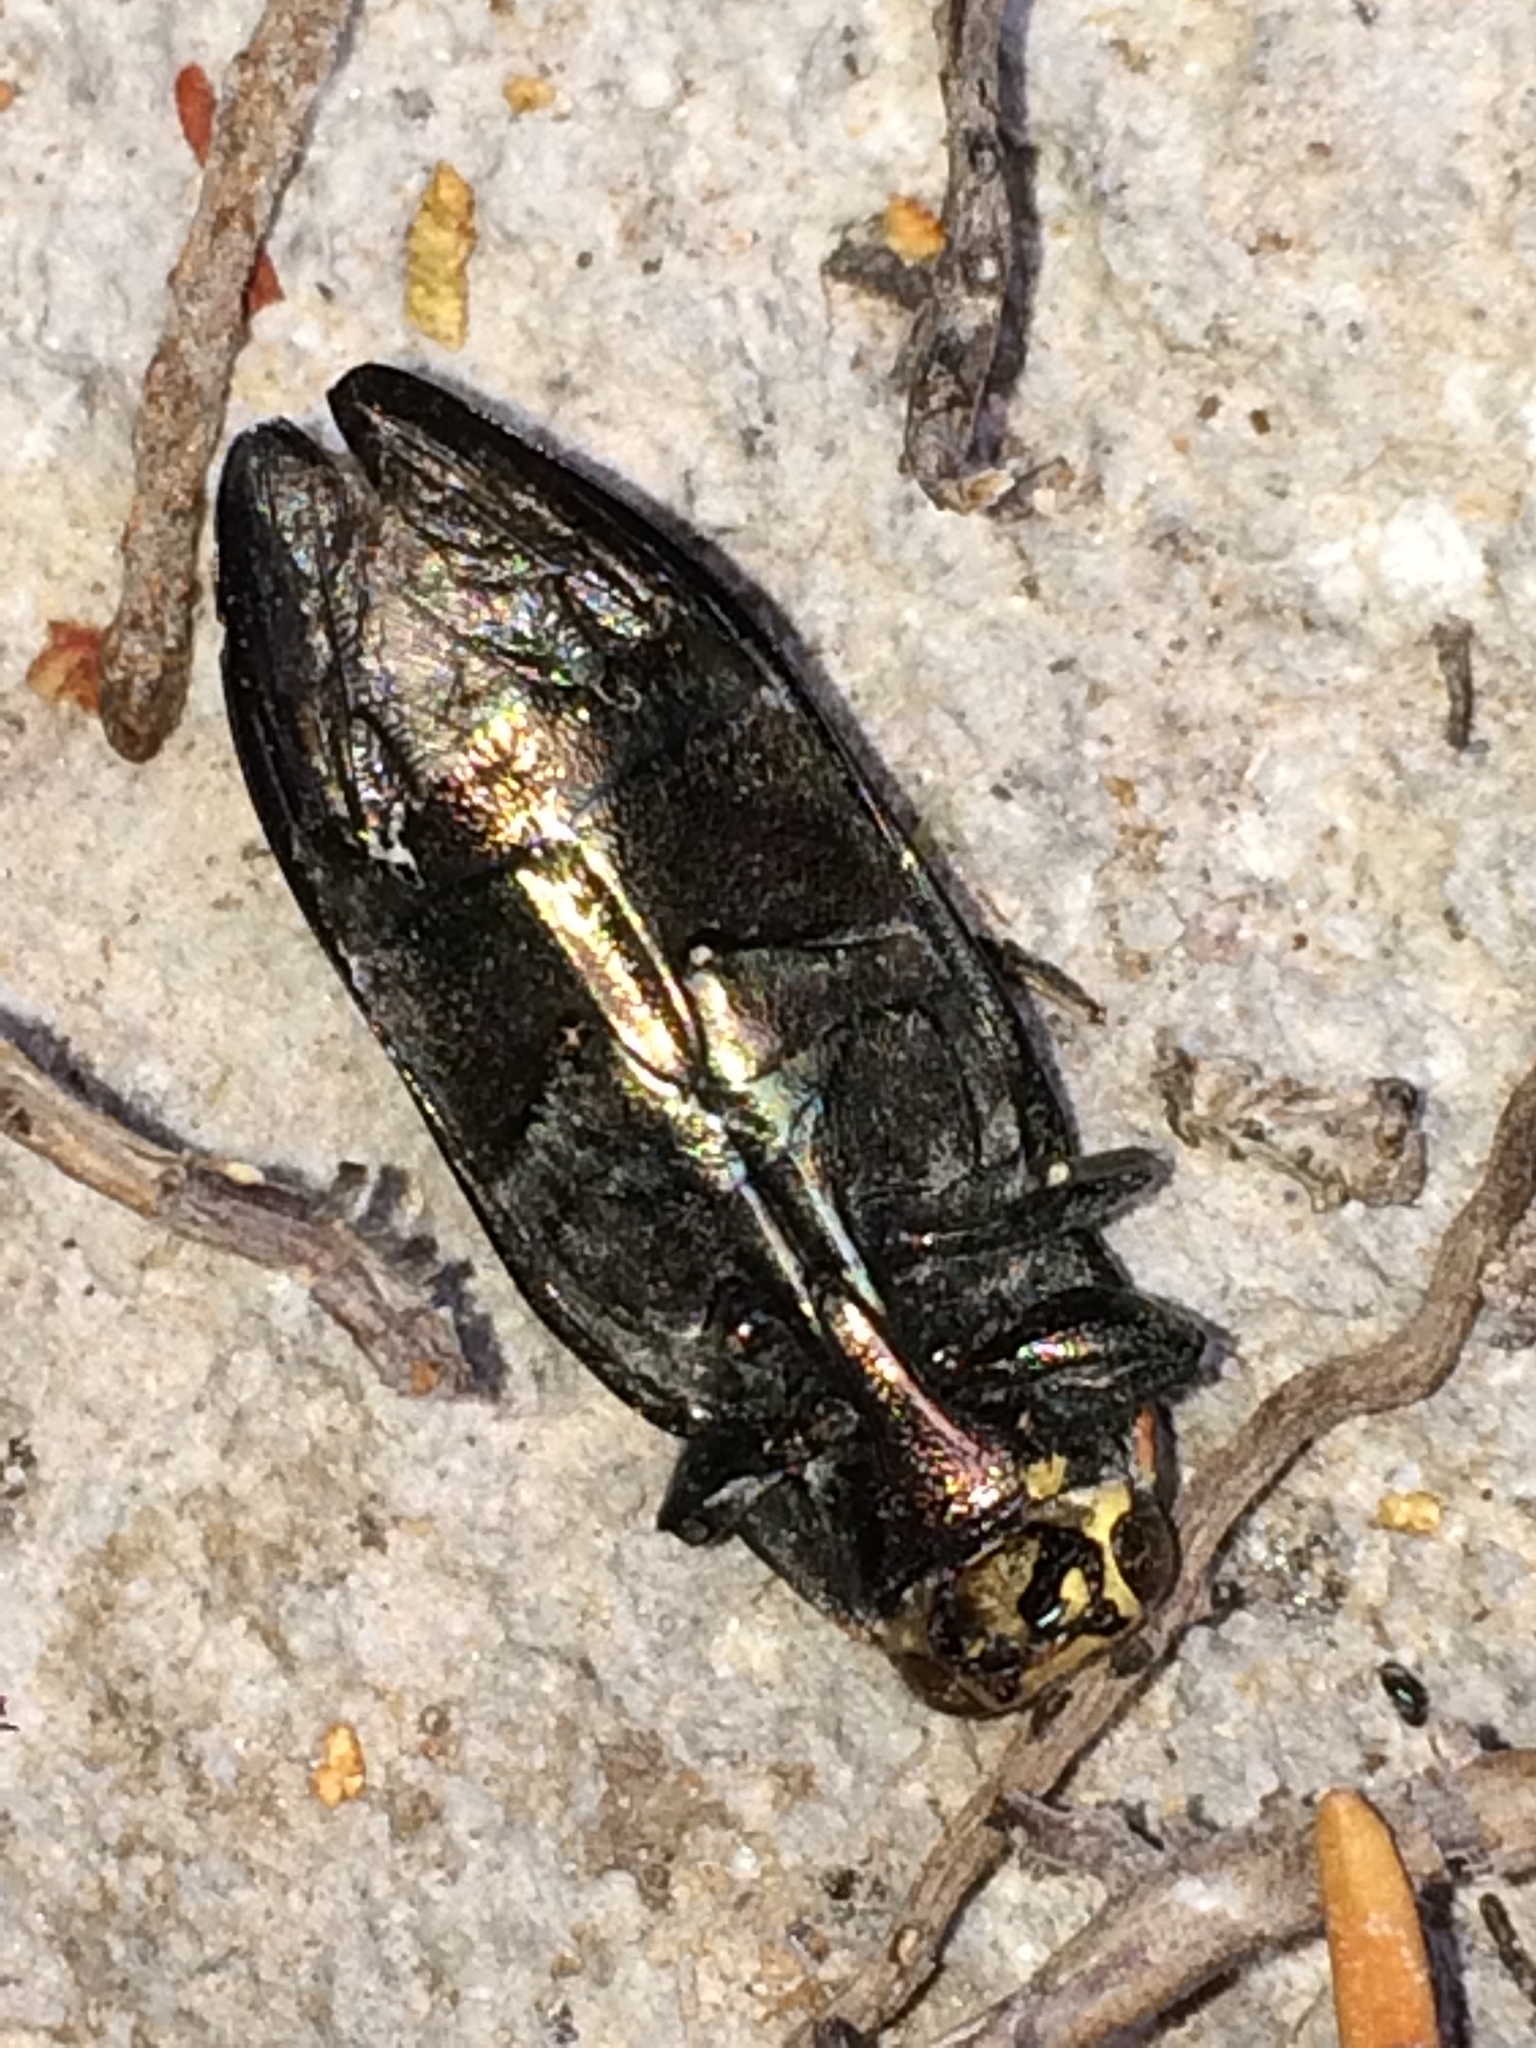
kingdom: Animalia
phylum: Arthropoda
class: Insecta
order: Coleoptera
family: Buprestidae
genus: Buprestis
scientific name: Buprestis lyrata
